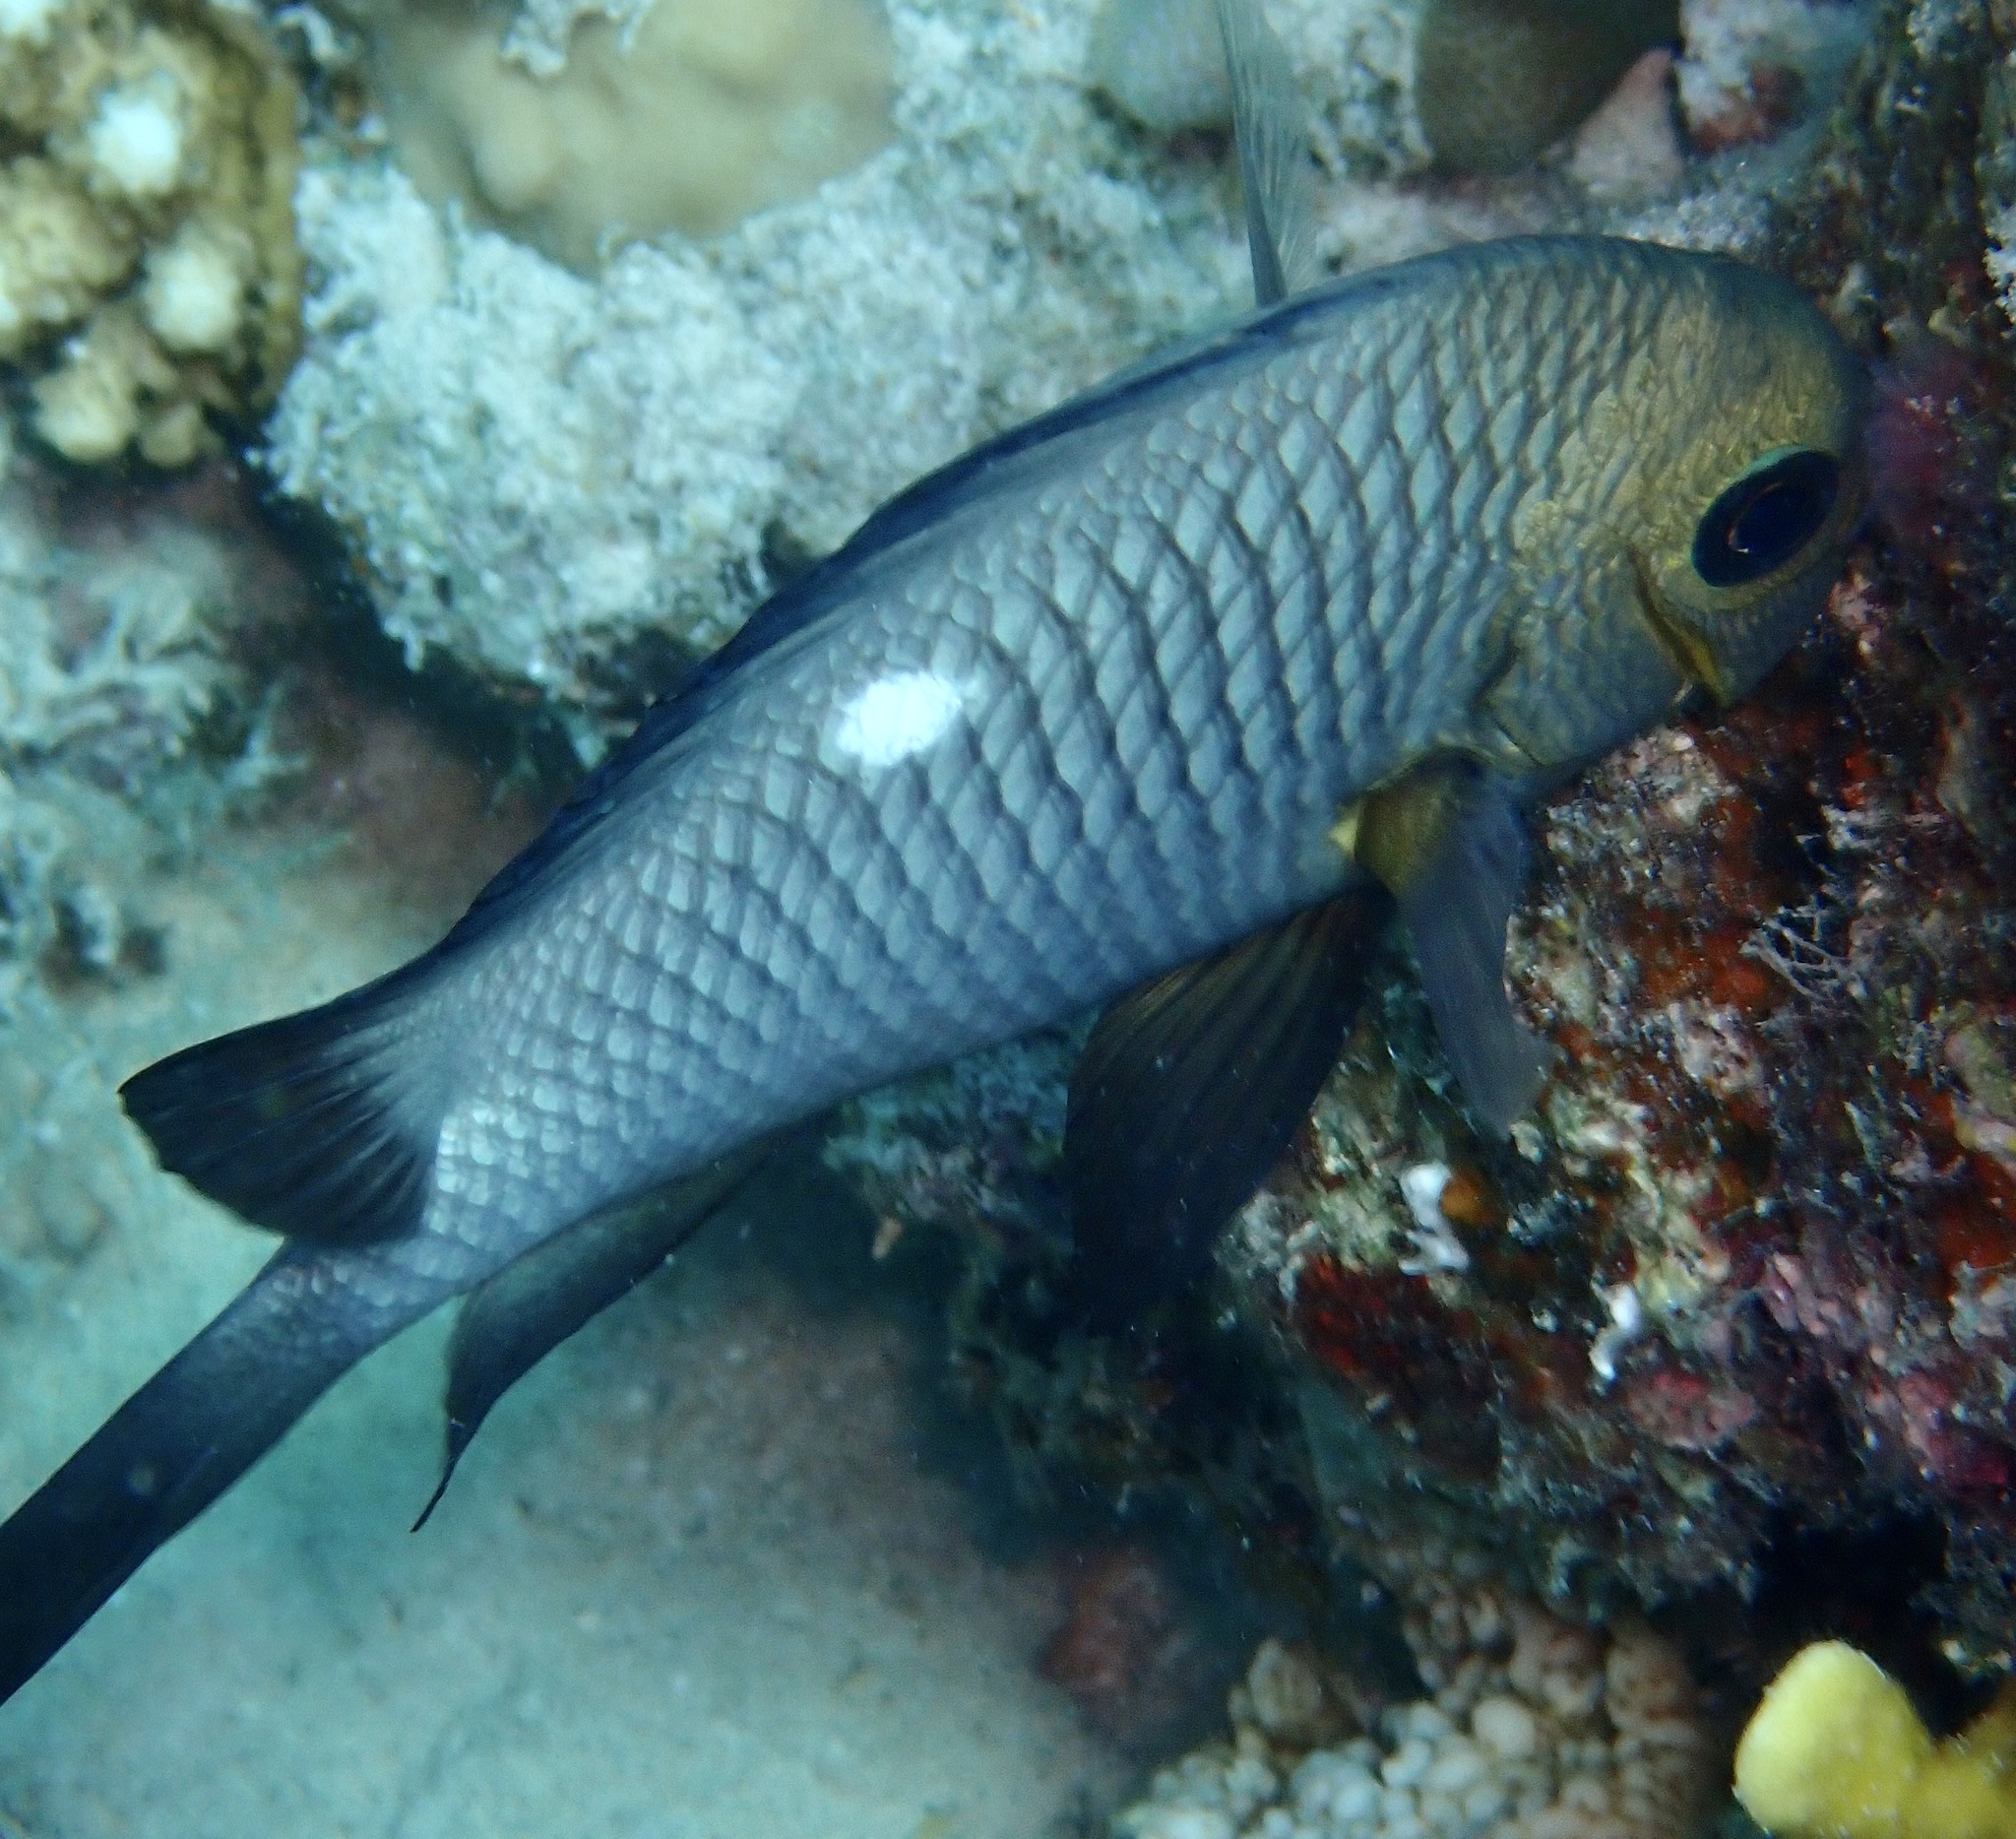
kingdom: Animalia
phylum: Chordata
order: Perciformes
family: Pomacentridae
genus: Dascyllus
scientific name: Dascyllus trimaculatus
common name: Threespot dascyllus
